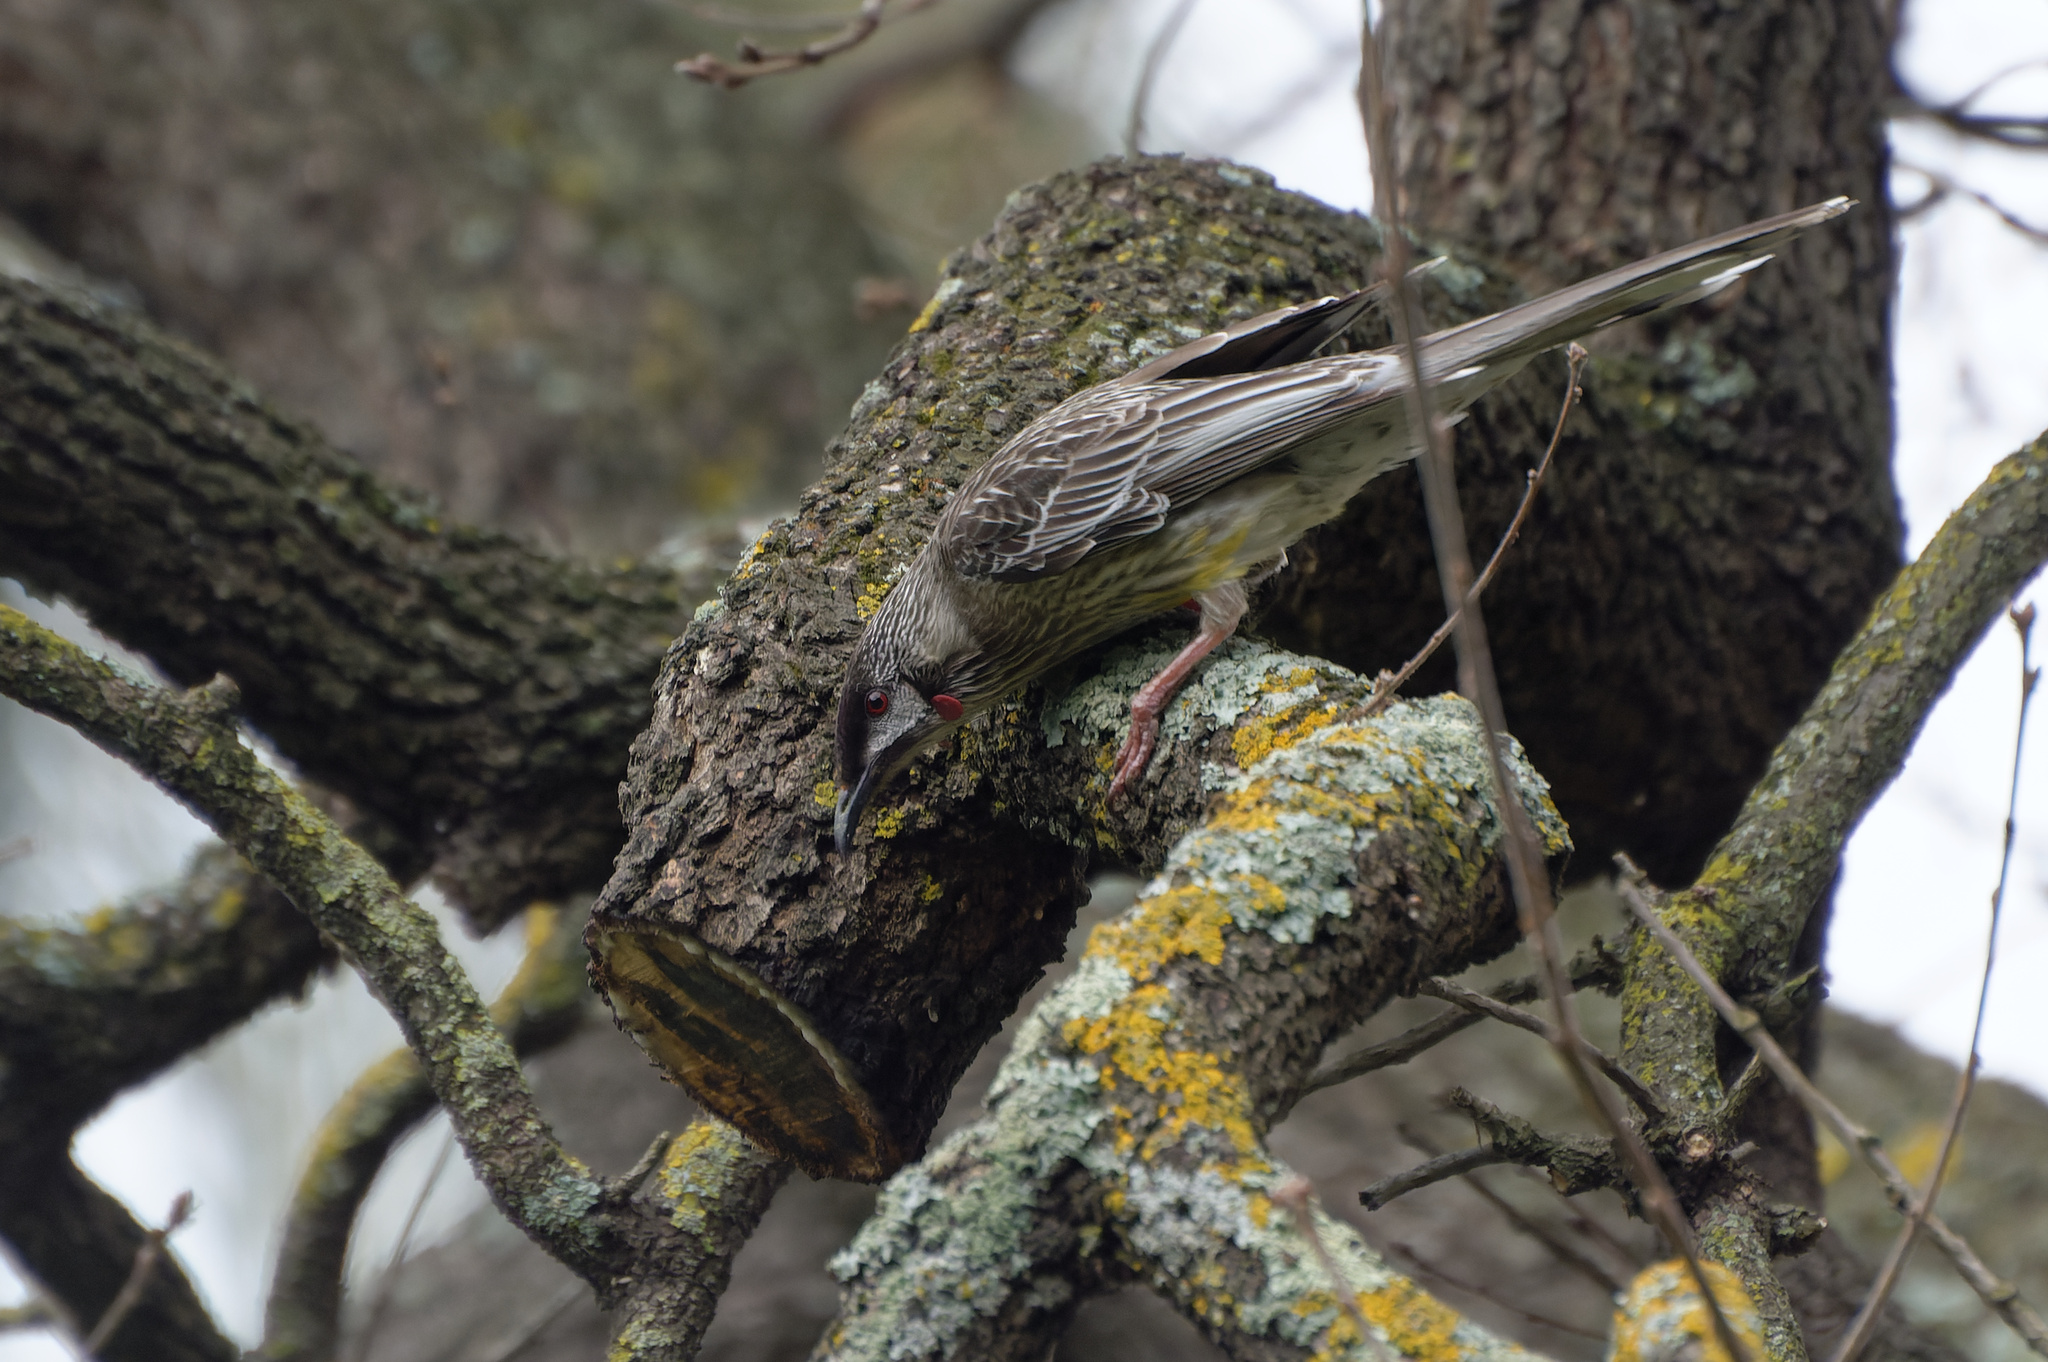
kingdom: Animalia
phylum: Chordata
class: Aves
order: Passeriformes
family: Meliphagidae
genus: Anthochaera
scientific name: Anthochaera carunculata
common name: Red wattlebird
